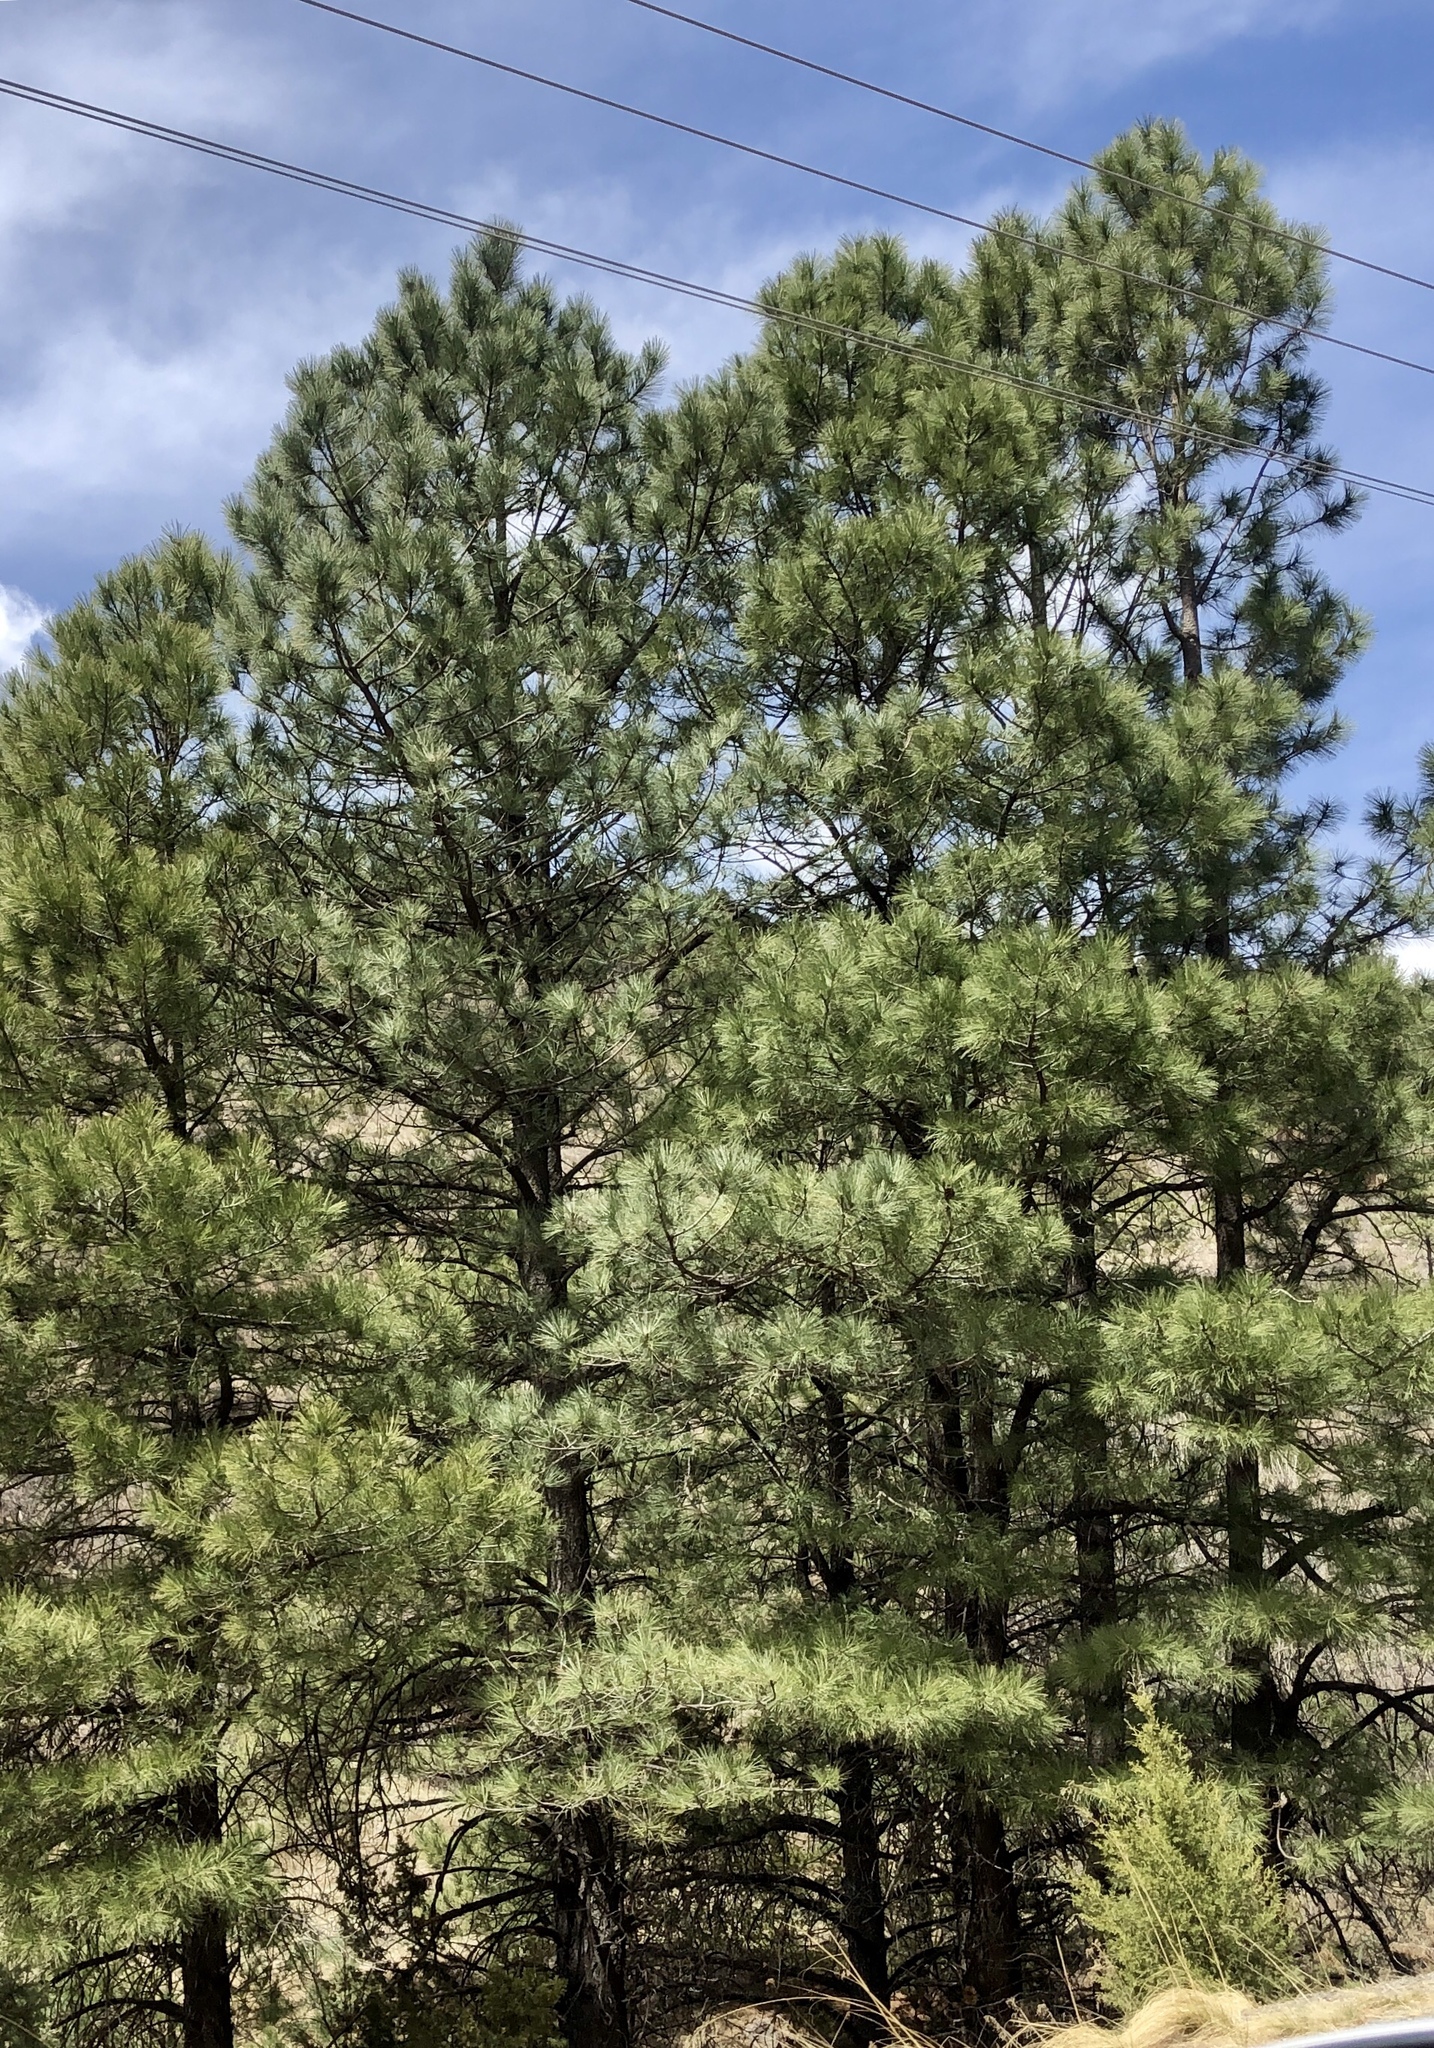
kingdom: Plantae
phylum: Tracheophyta
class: Pinopsida
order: Pinales
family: Pinaceae
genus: Pinus
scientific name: Pinus ponderosa
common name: Western yellow-pine
